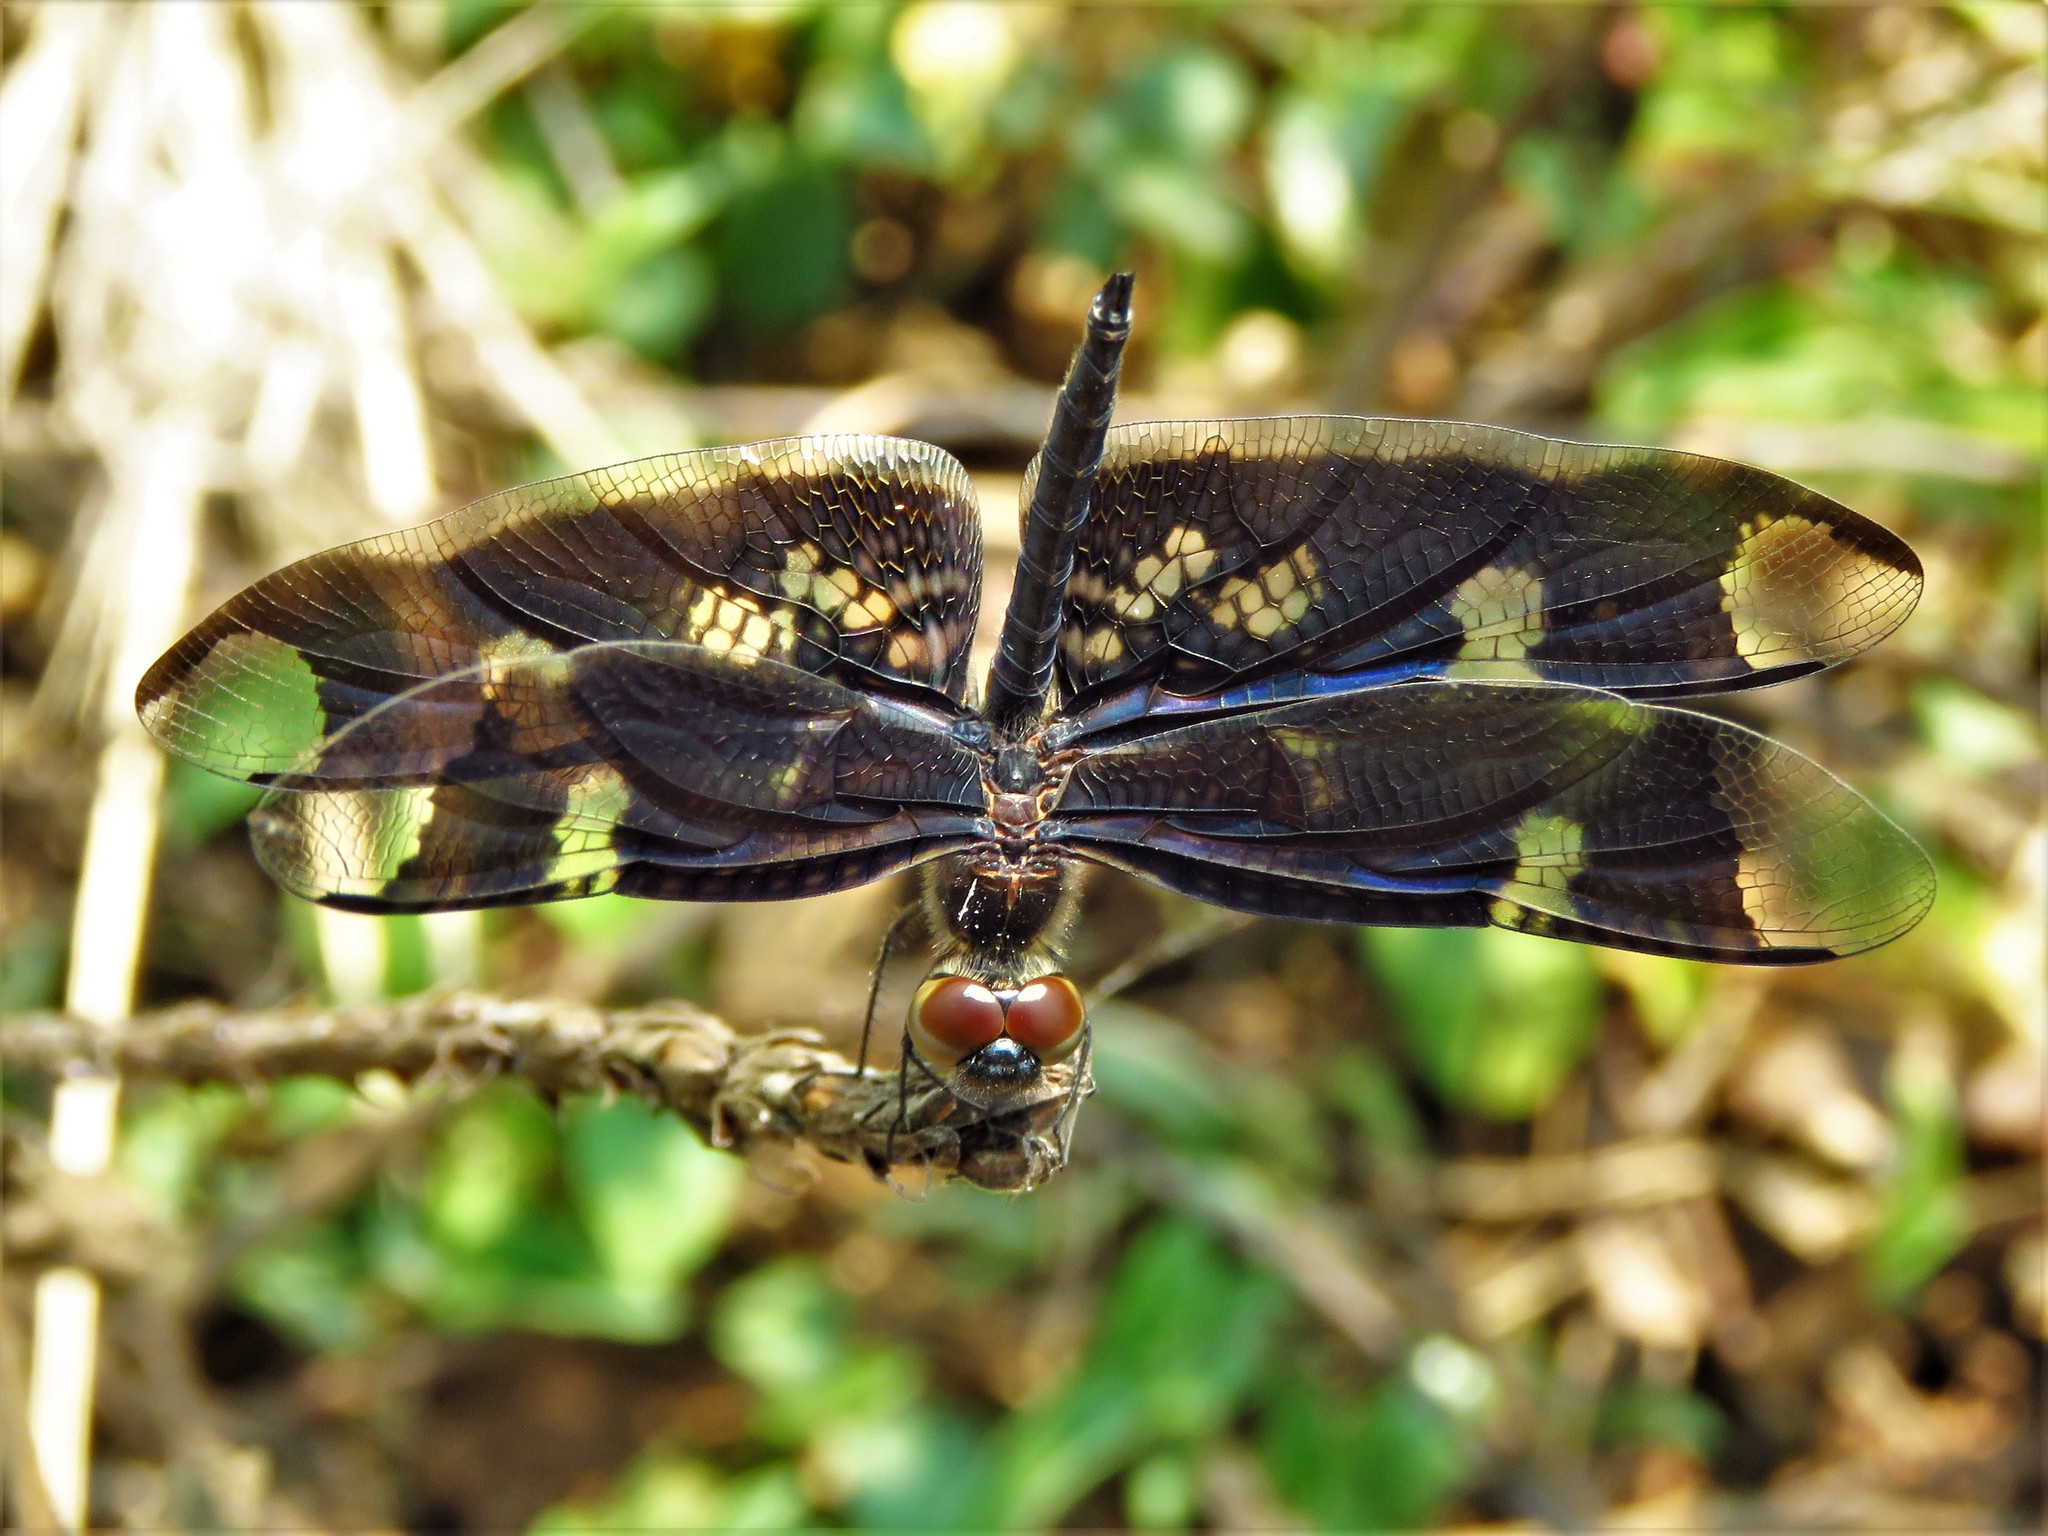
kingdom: Animalia
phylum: Arthropoda
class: Insecta
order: Odonata
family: Libellulidae
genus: Rhyothemis
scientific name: Rhyothemis fenestrina
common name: Skylight flutterer
